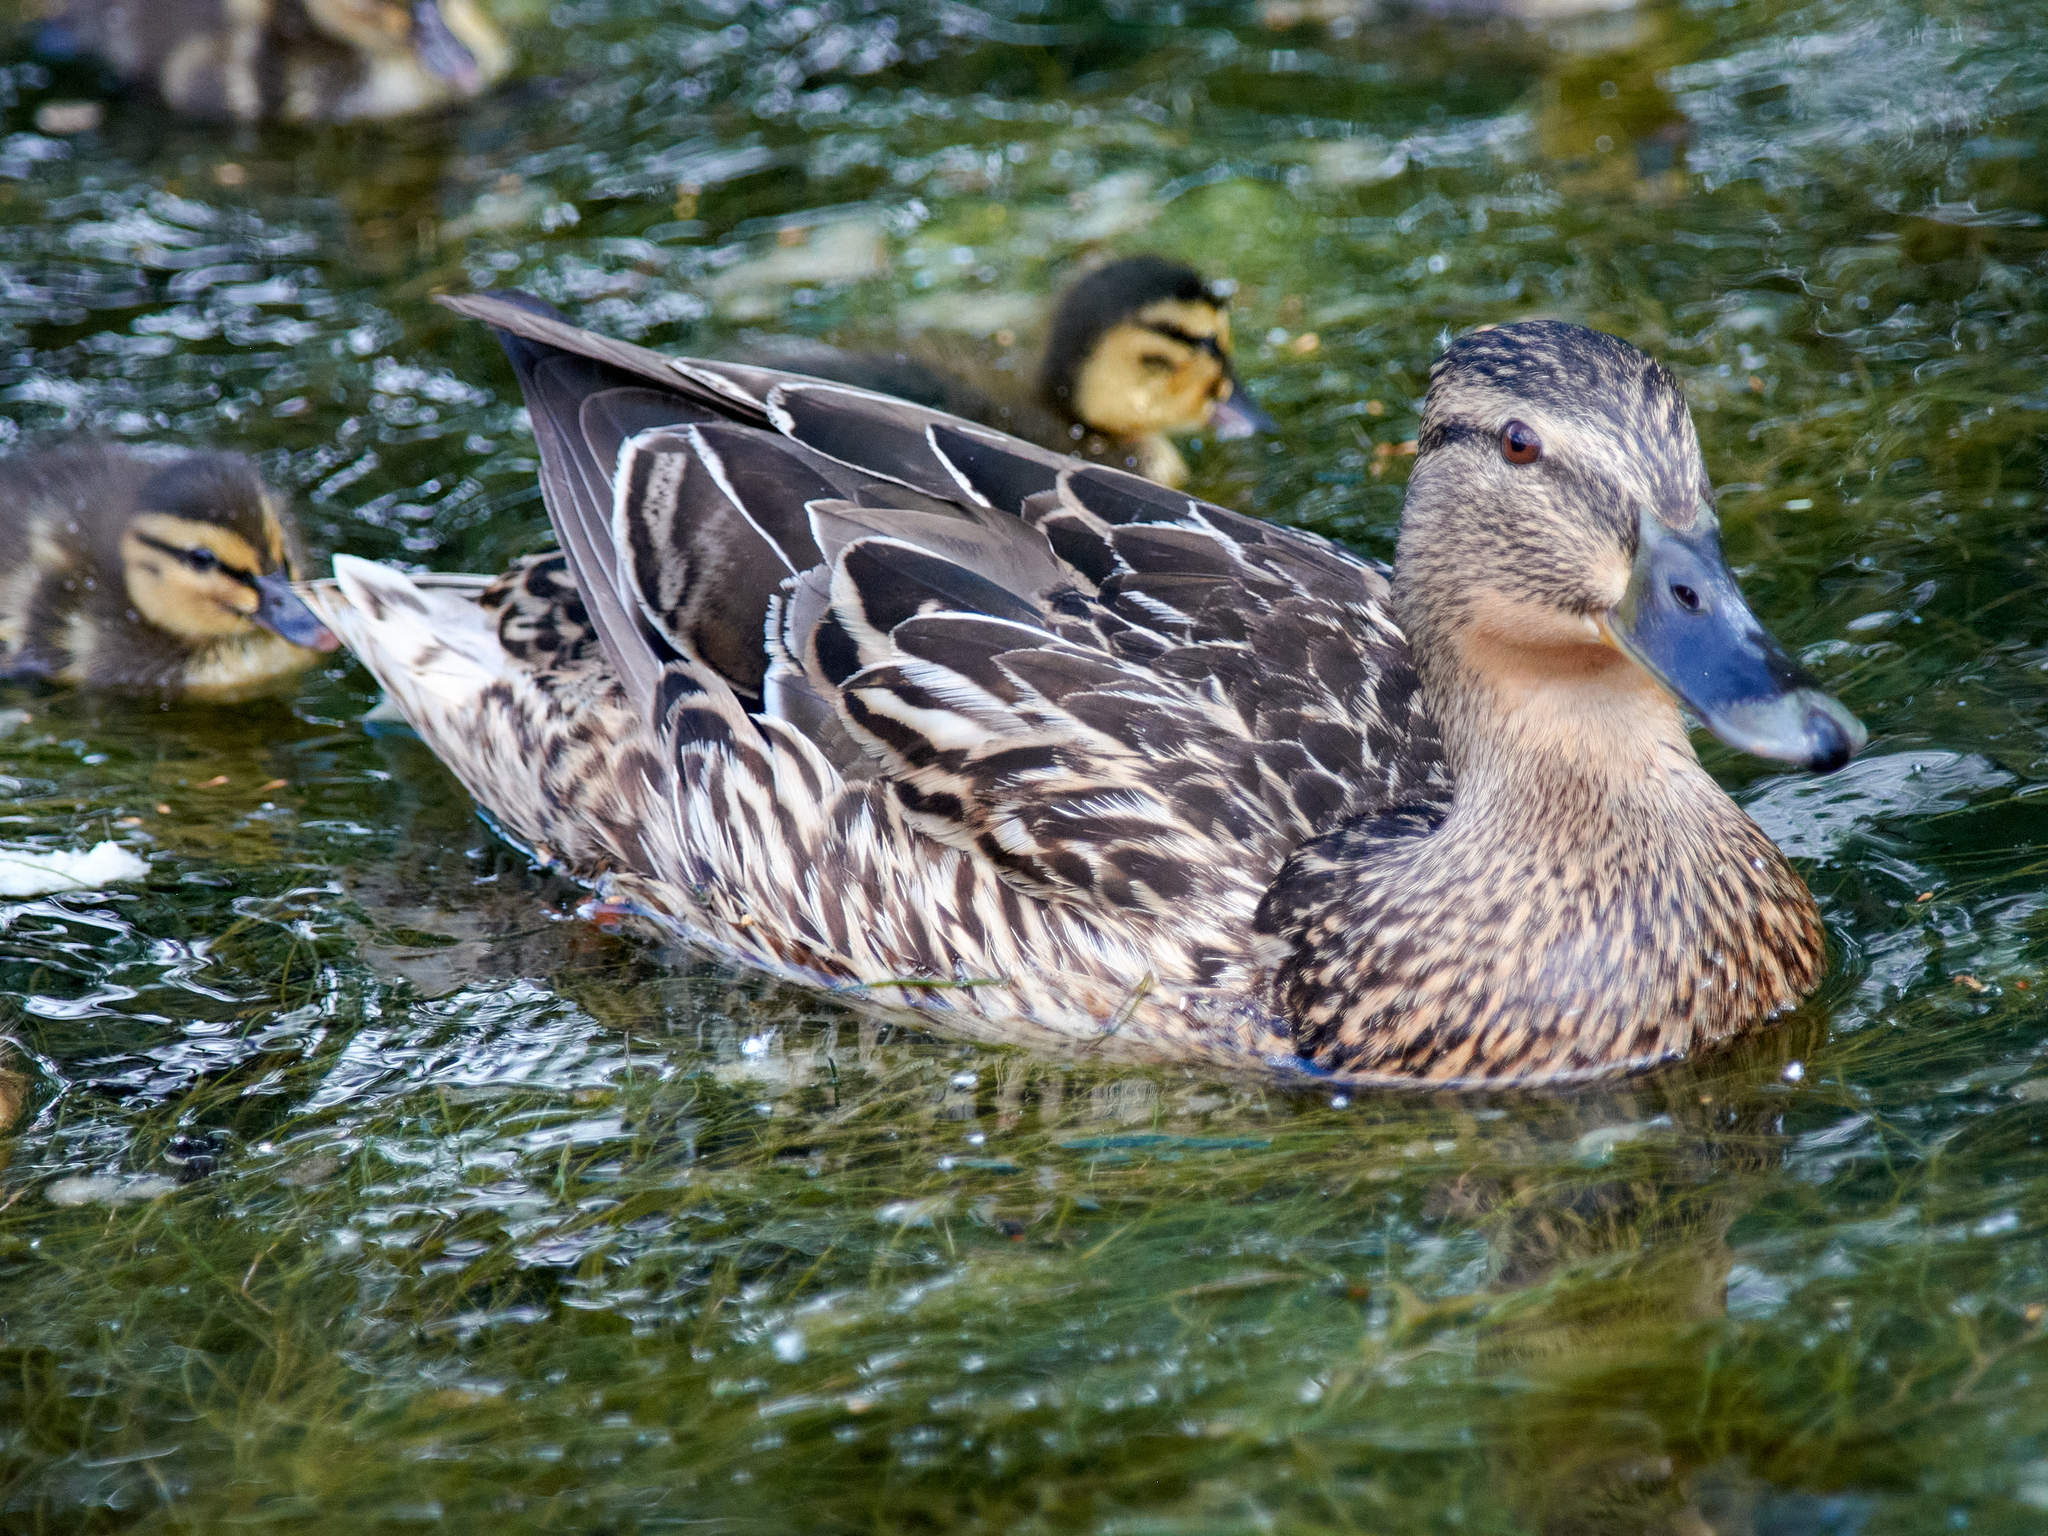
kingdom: Animalia
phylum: Chordata
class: Aves
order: Anseriformes
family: Anatidae
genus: Anas
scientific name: Anas platyrhynchos
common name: Mallard
